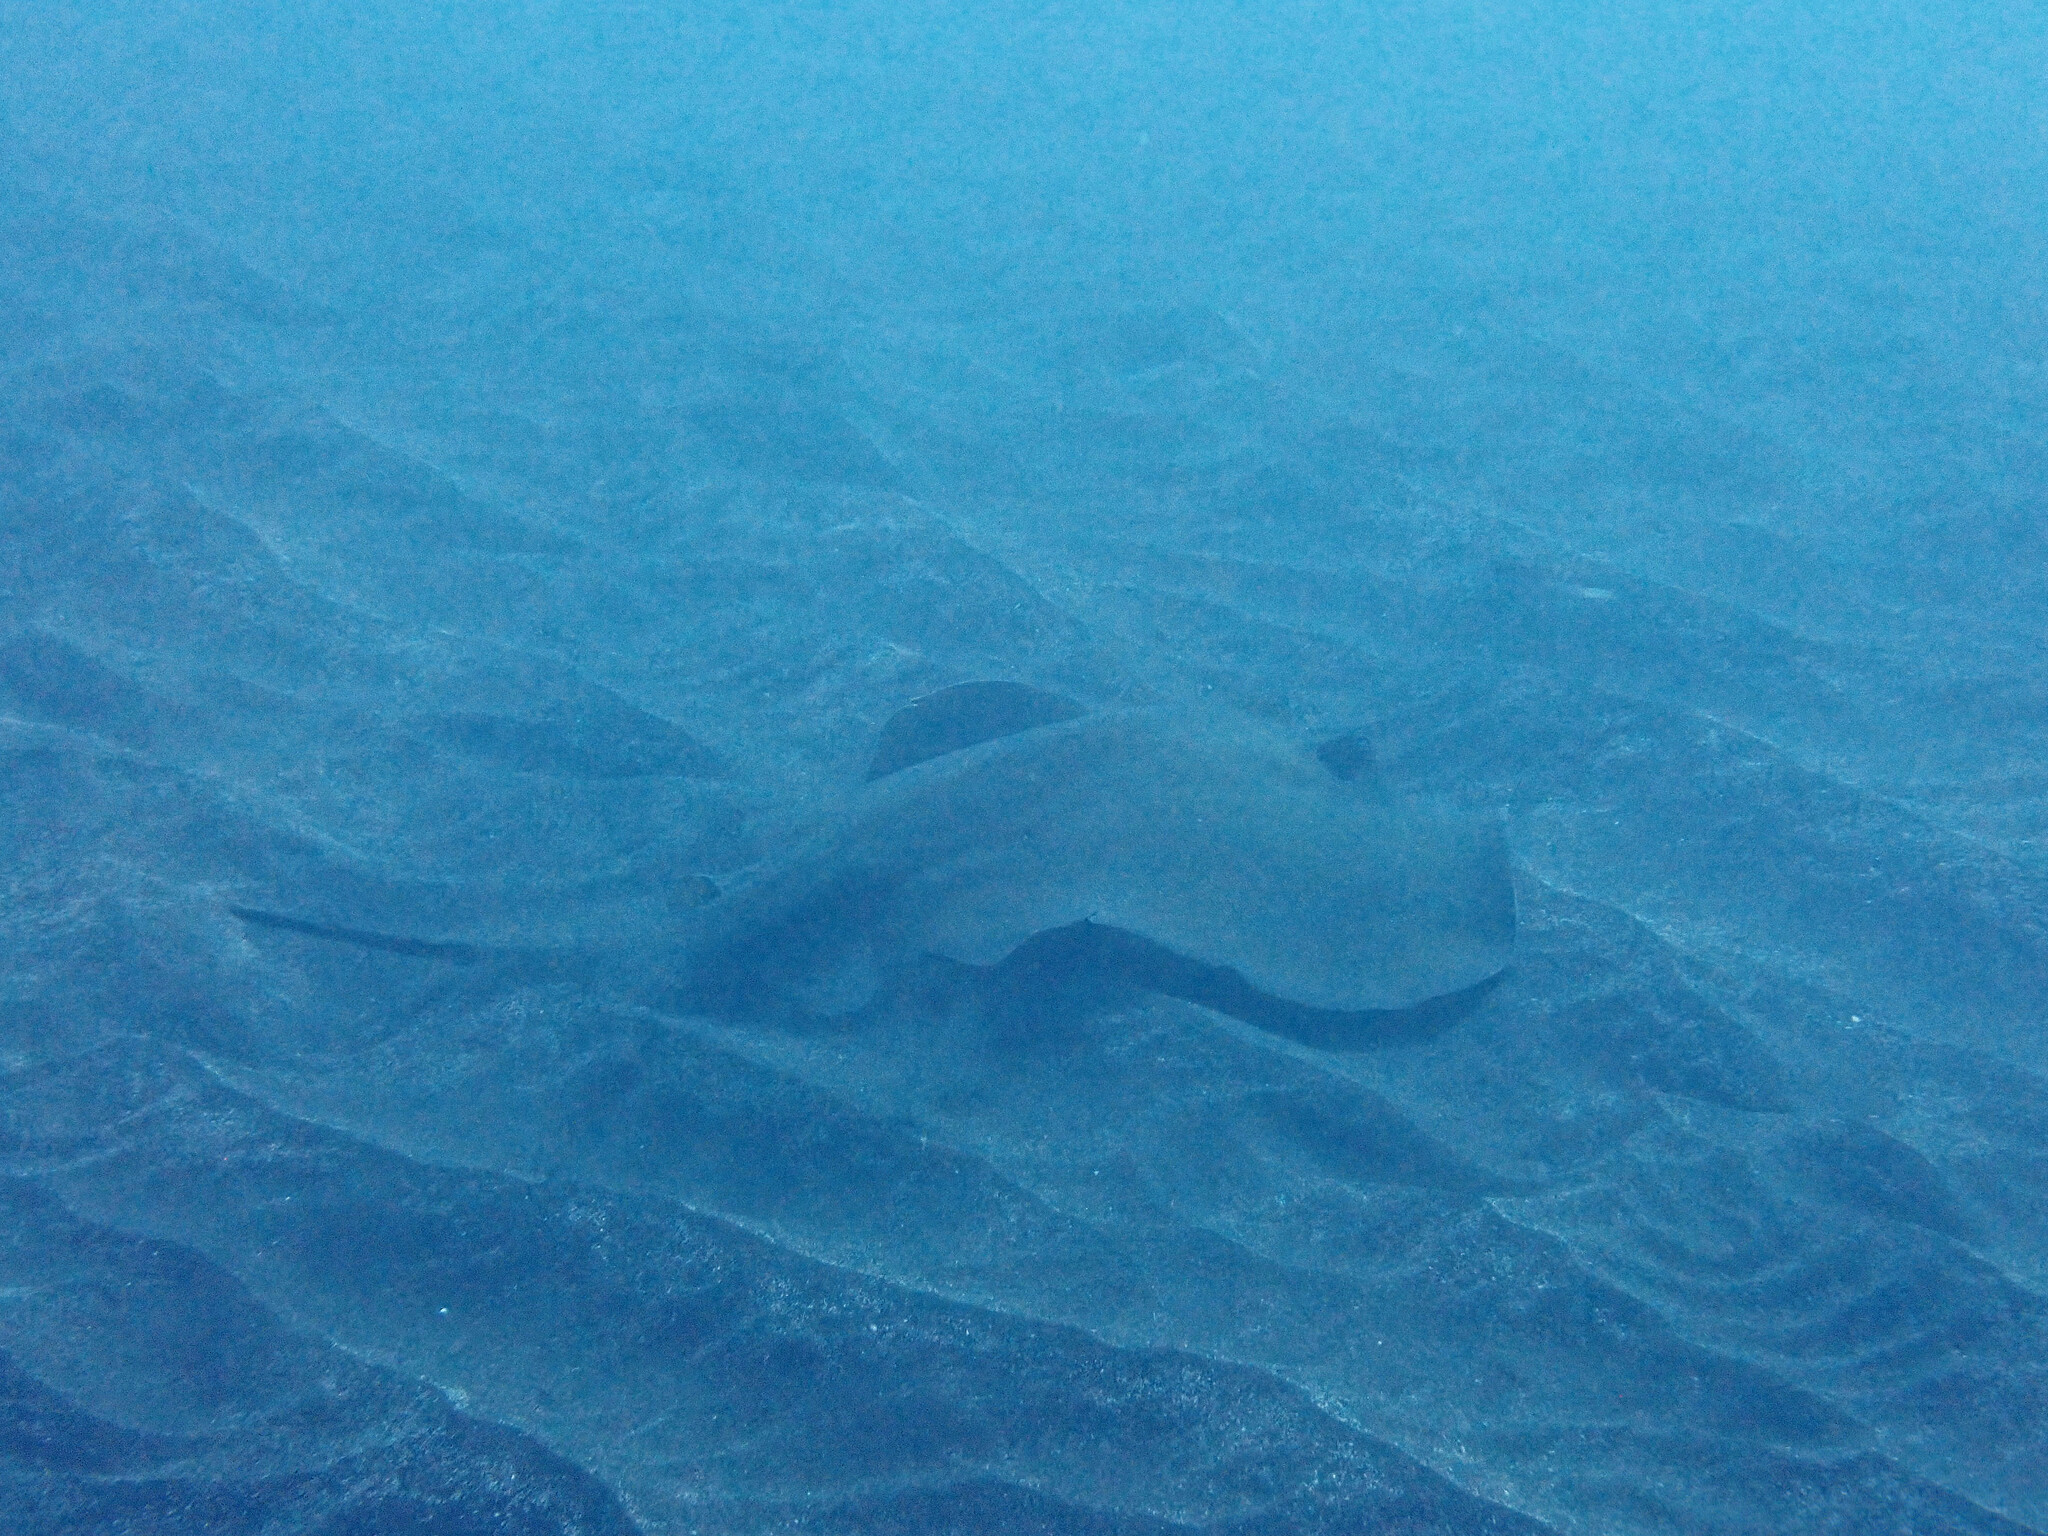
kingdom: Animalia
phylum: Chordata
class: Elasmobranchii
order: Myliobatiformes
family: Dasyatidae
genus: Dasyatis
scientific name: Dasyatis pastinaca
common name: Common stingray
